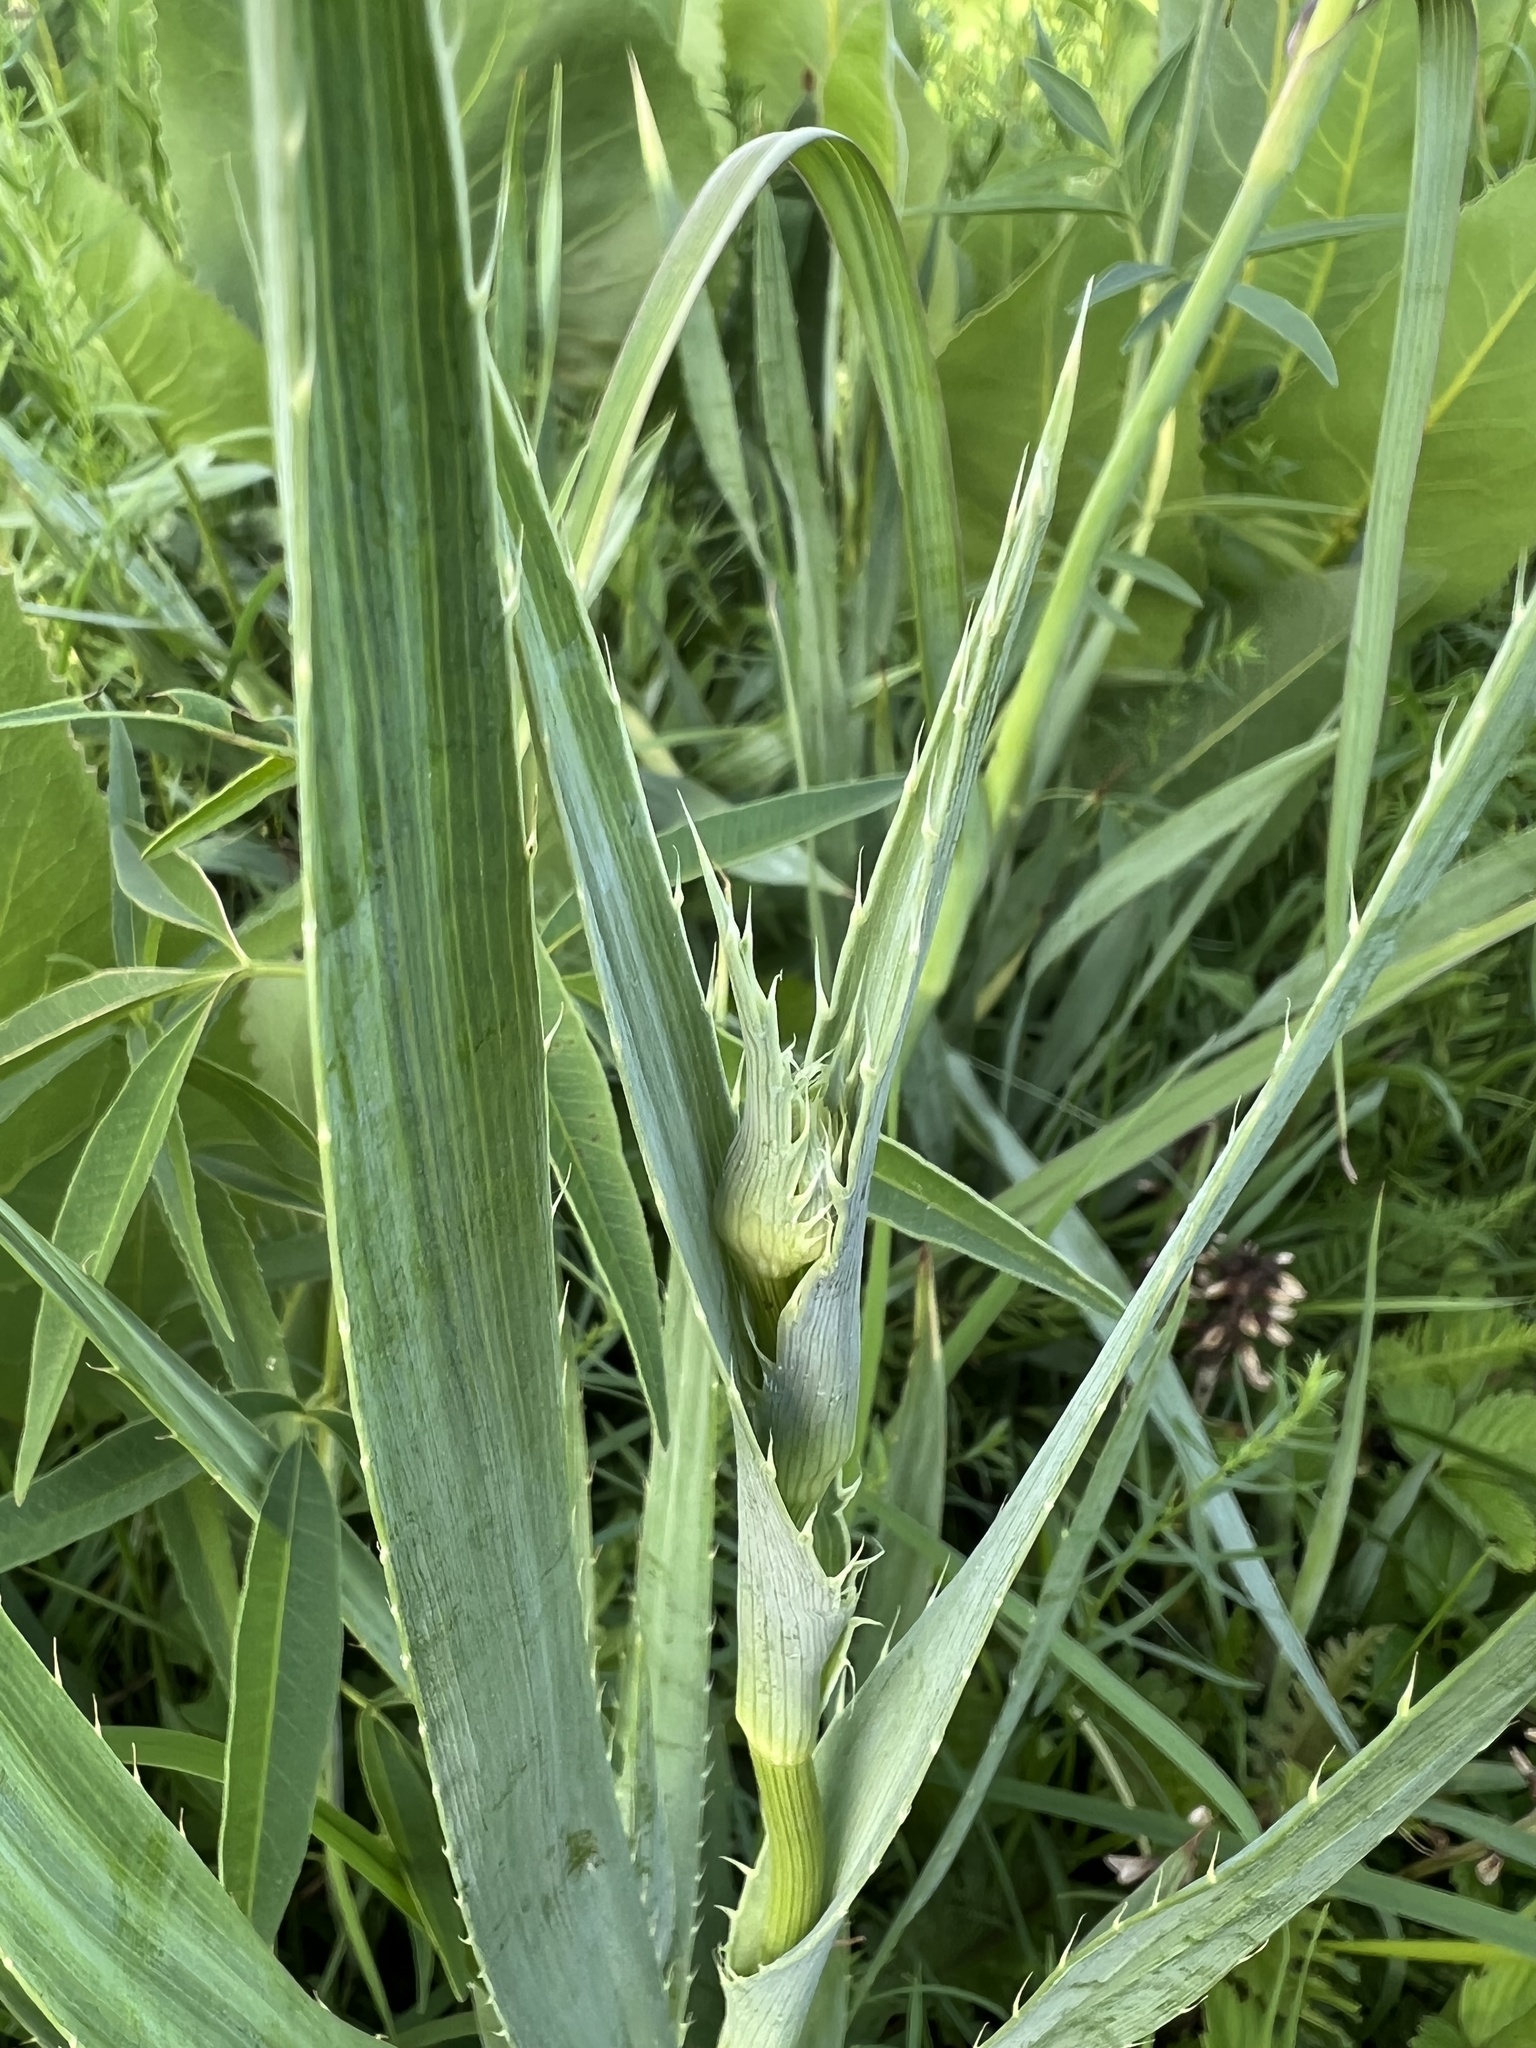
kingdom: Plantae
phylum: Tracheophyta
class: Magnoliopsida
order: Apiales
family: Apiaceae
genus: Eryngium
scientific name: Eryngium yuccifolium
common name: Button eryngo
